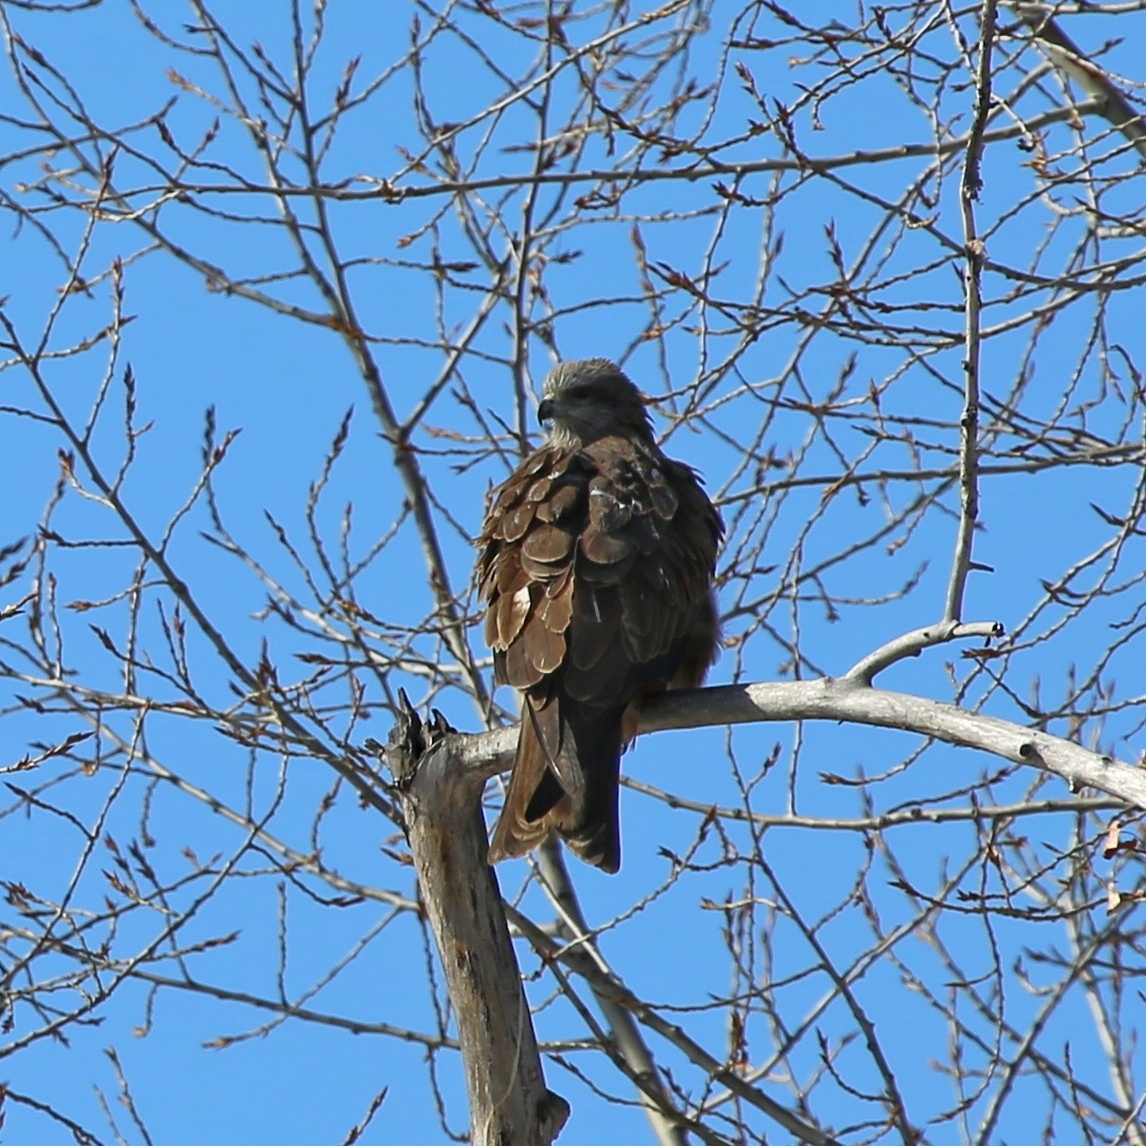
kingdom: Animalia
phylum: Chordata
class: Aves
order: Accipitriformes
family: Accipitridae
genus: Milvus
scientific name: Milvus migrans
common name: Black kite
